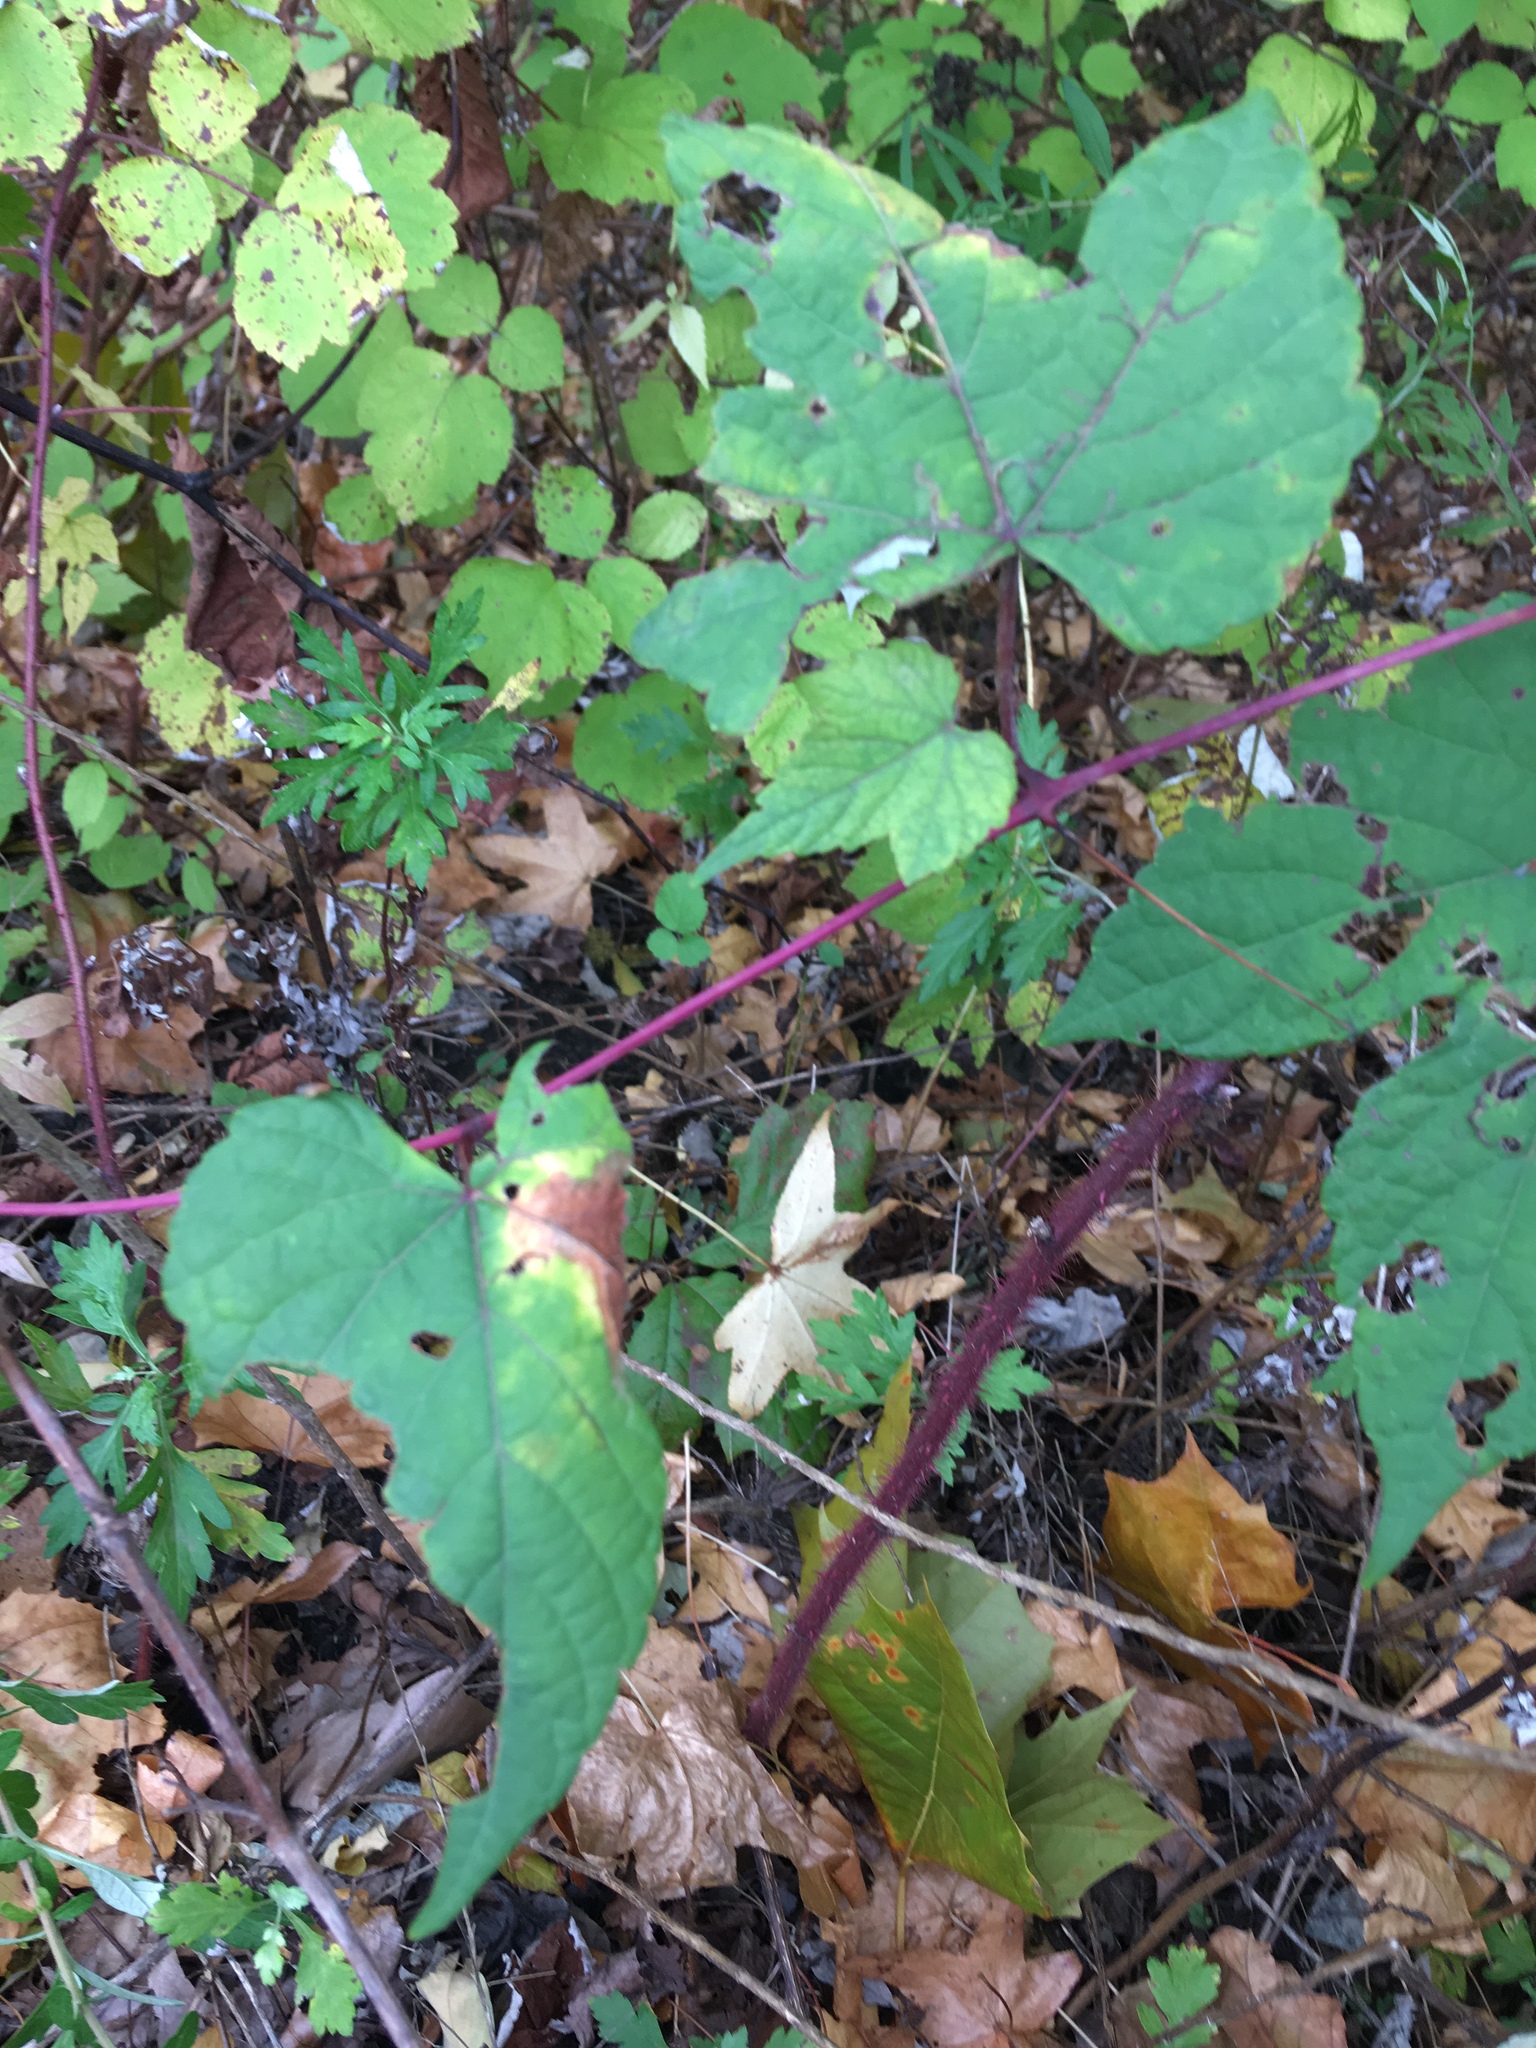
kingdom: Plantae
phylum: Tracheophyta
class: Magnoliopsida
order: Vitales
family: Vitaceae
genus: Ampelopsis
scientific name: Ampelopsis glandulosa
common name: Amur peppervine
